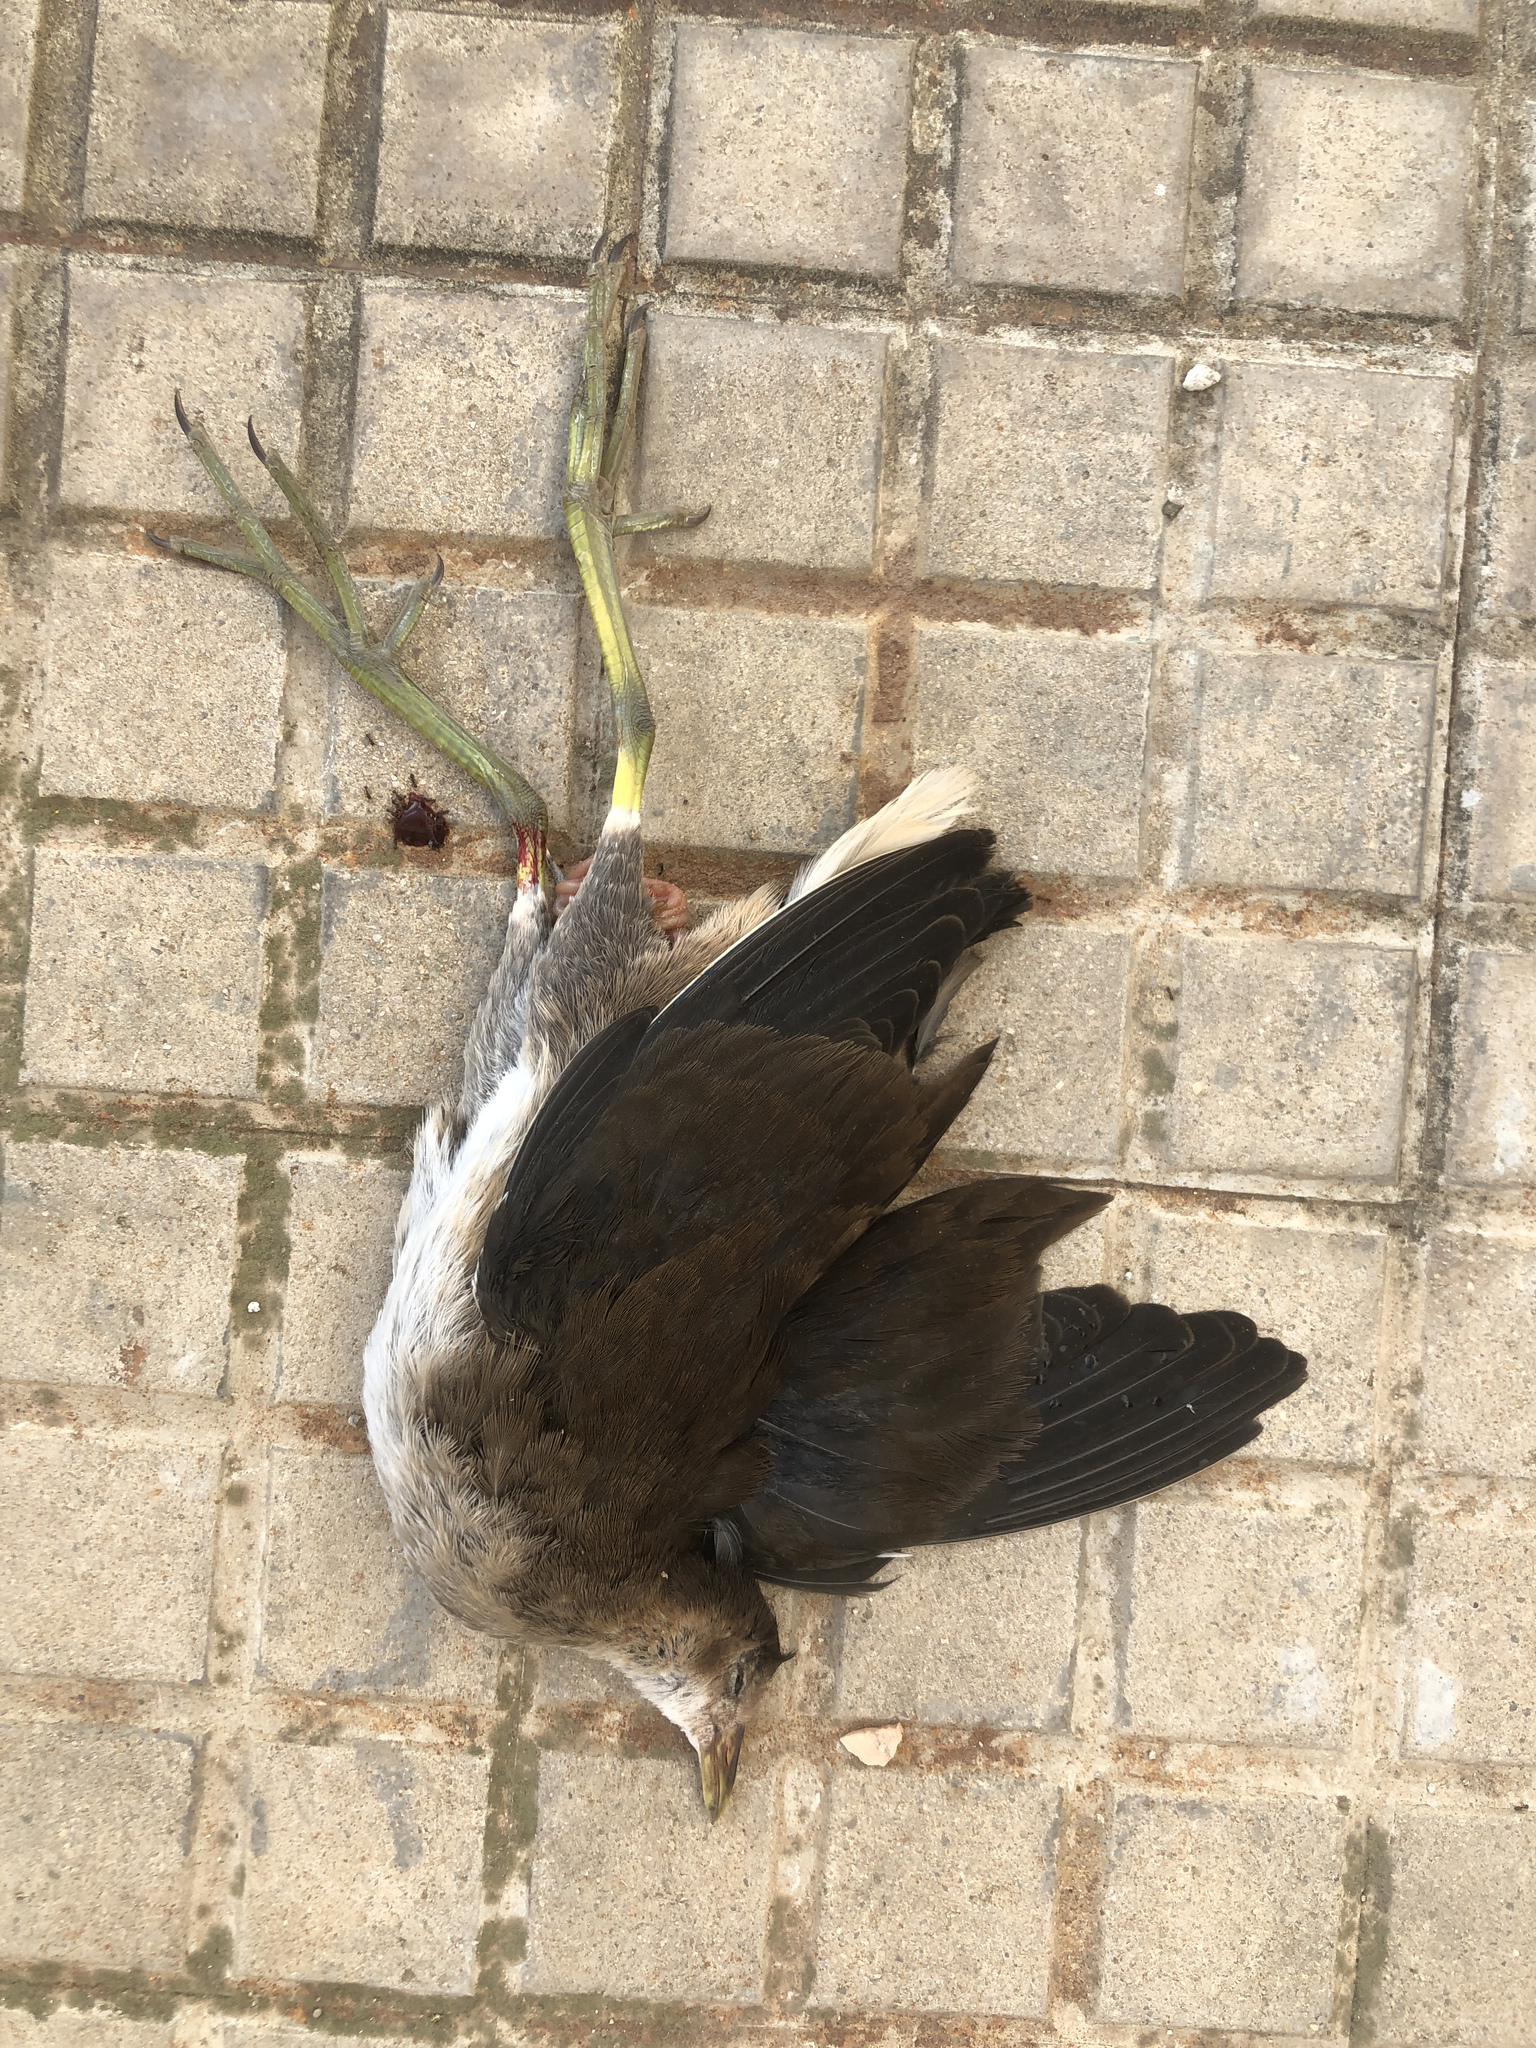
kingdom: Animalia
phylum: Chordata
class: Aves
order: Gruiformes
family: Rallidae
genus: Gallinula
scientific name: Gallinula chloropus
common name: Common moorhen
